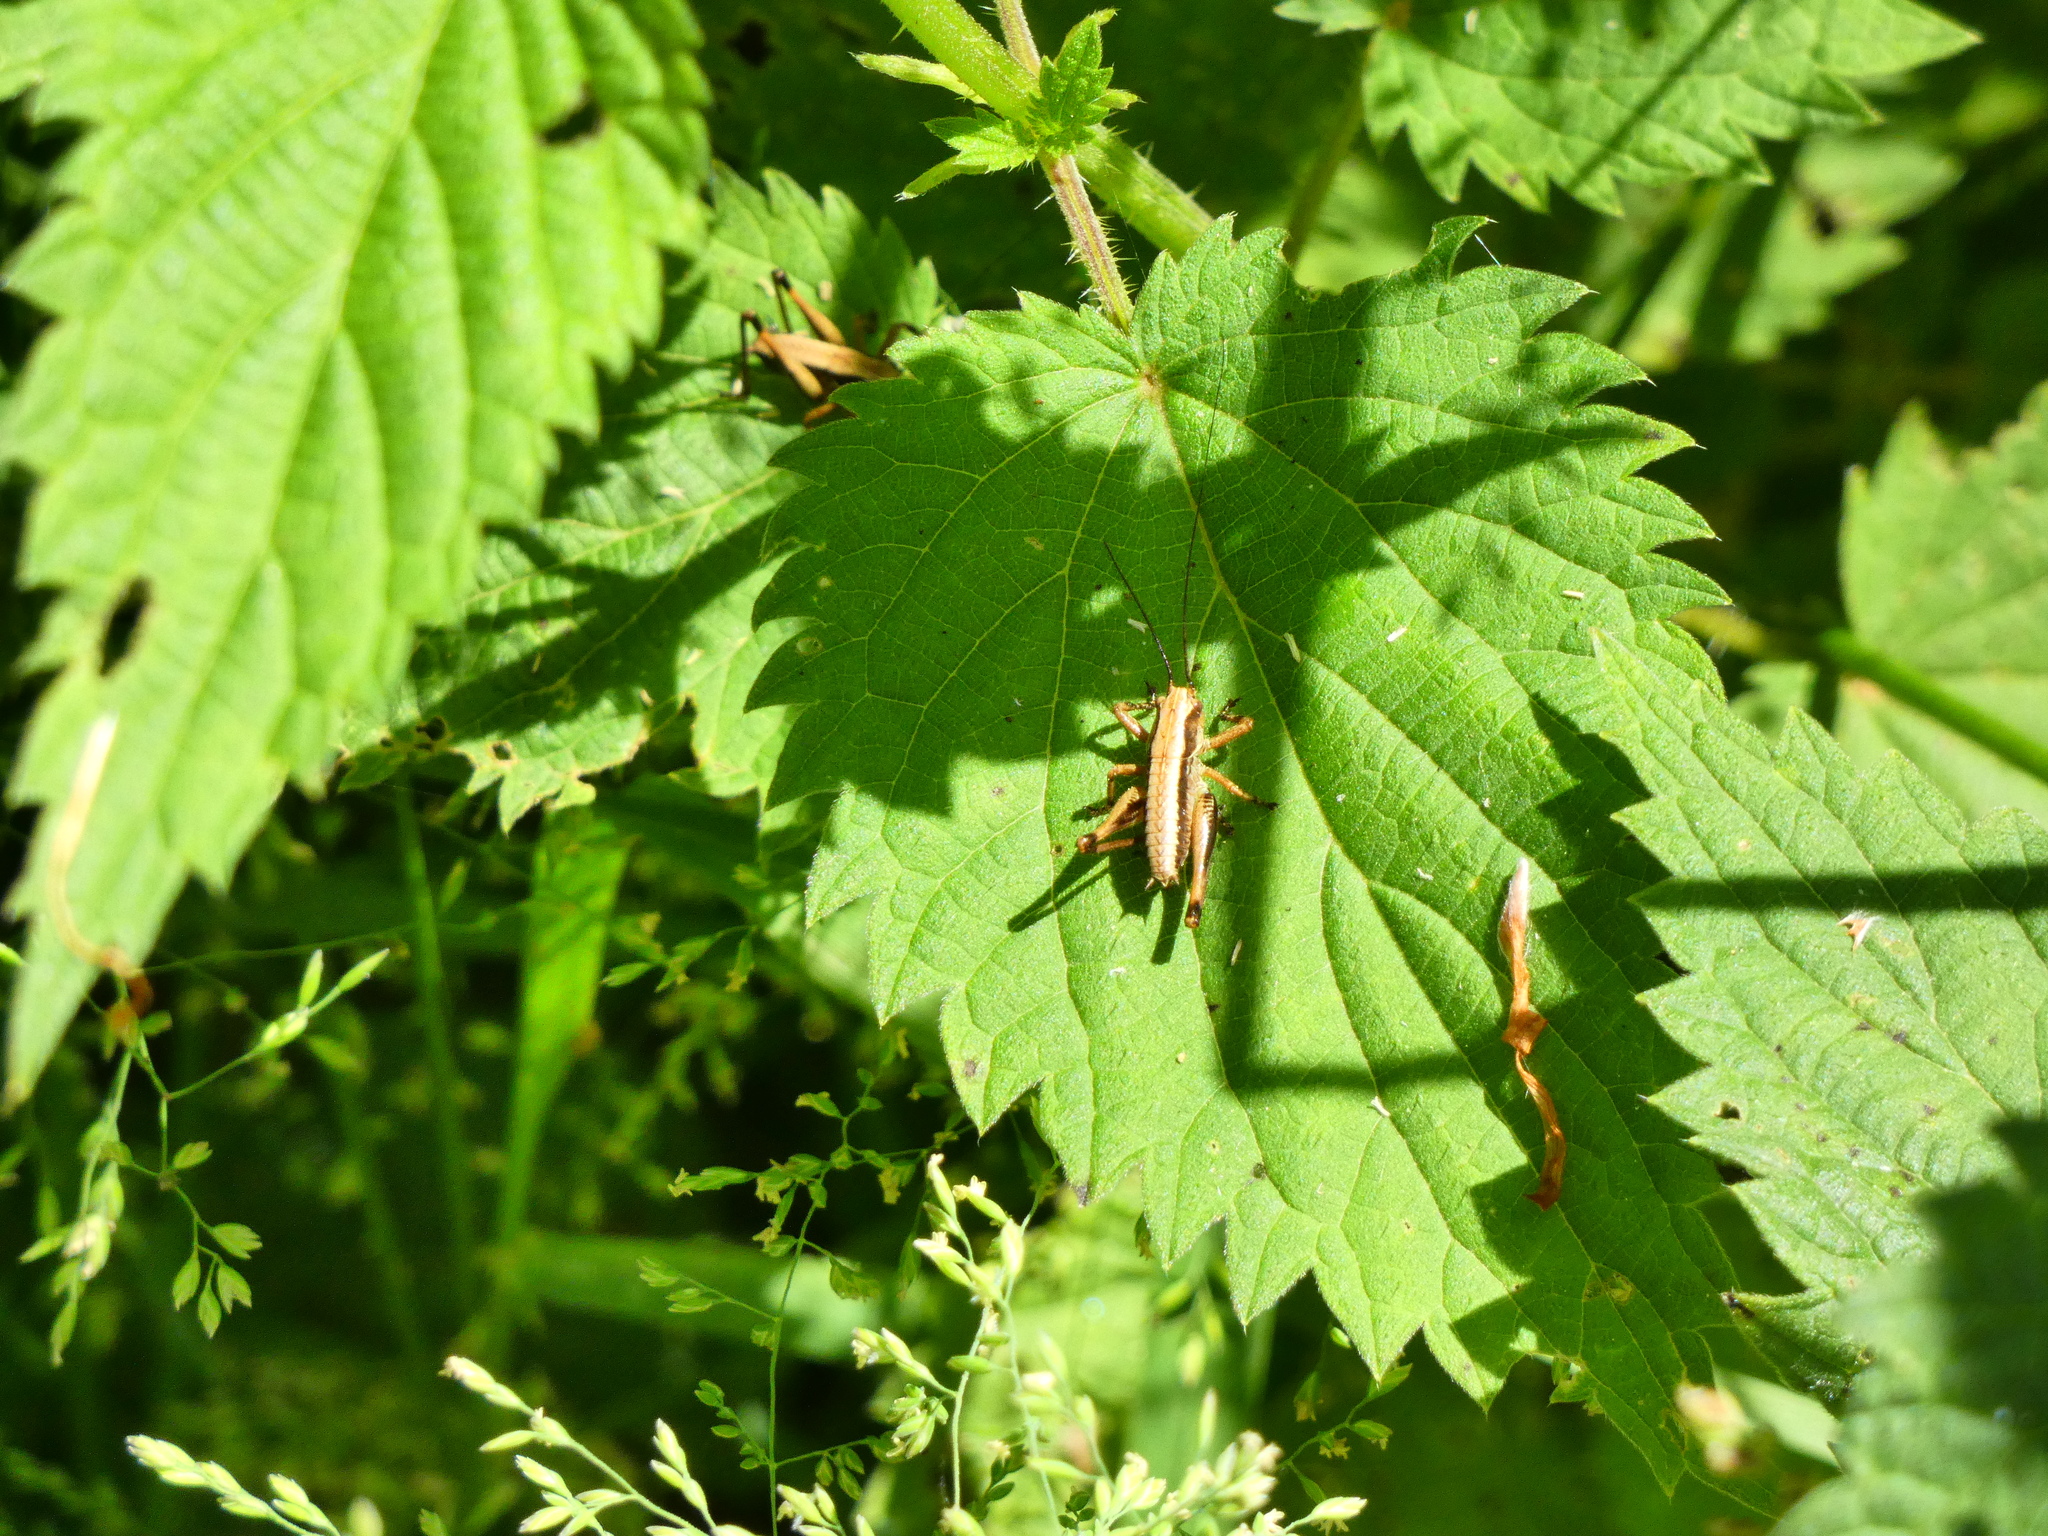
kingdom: Animalia
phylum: Arthropoda
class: Insecta
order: Orthoptera
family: Tettigoniidae
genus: Pholidoptera
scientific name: Pholidoptera griseoaptera
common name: Dark bush-cricket
